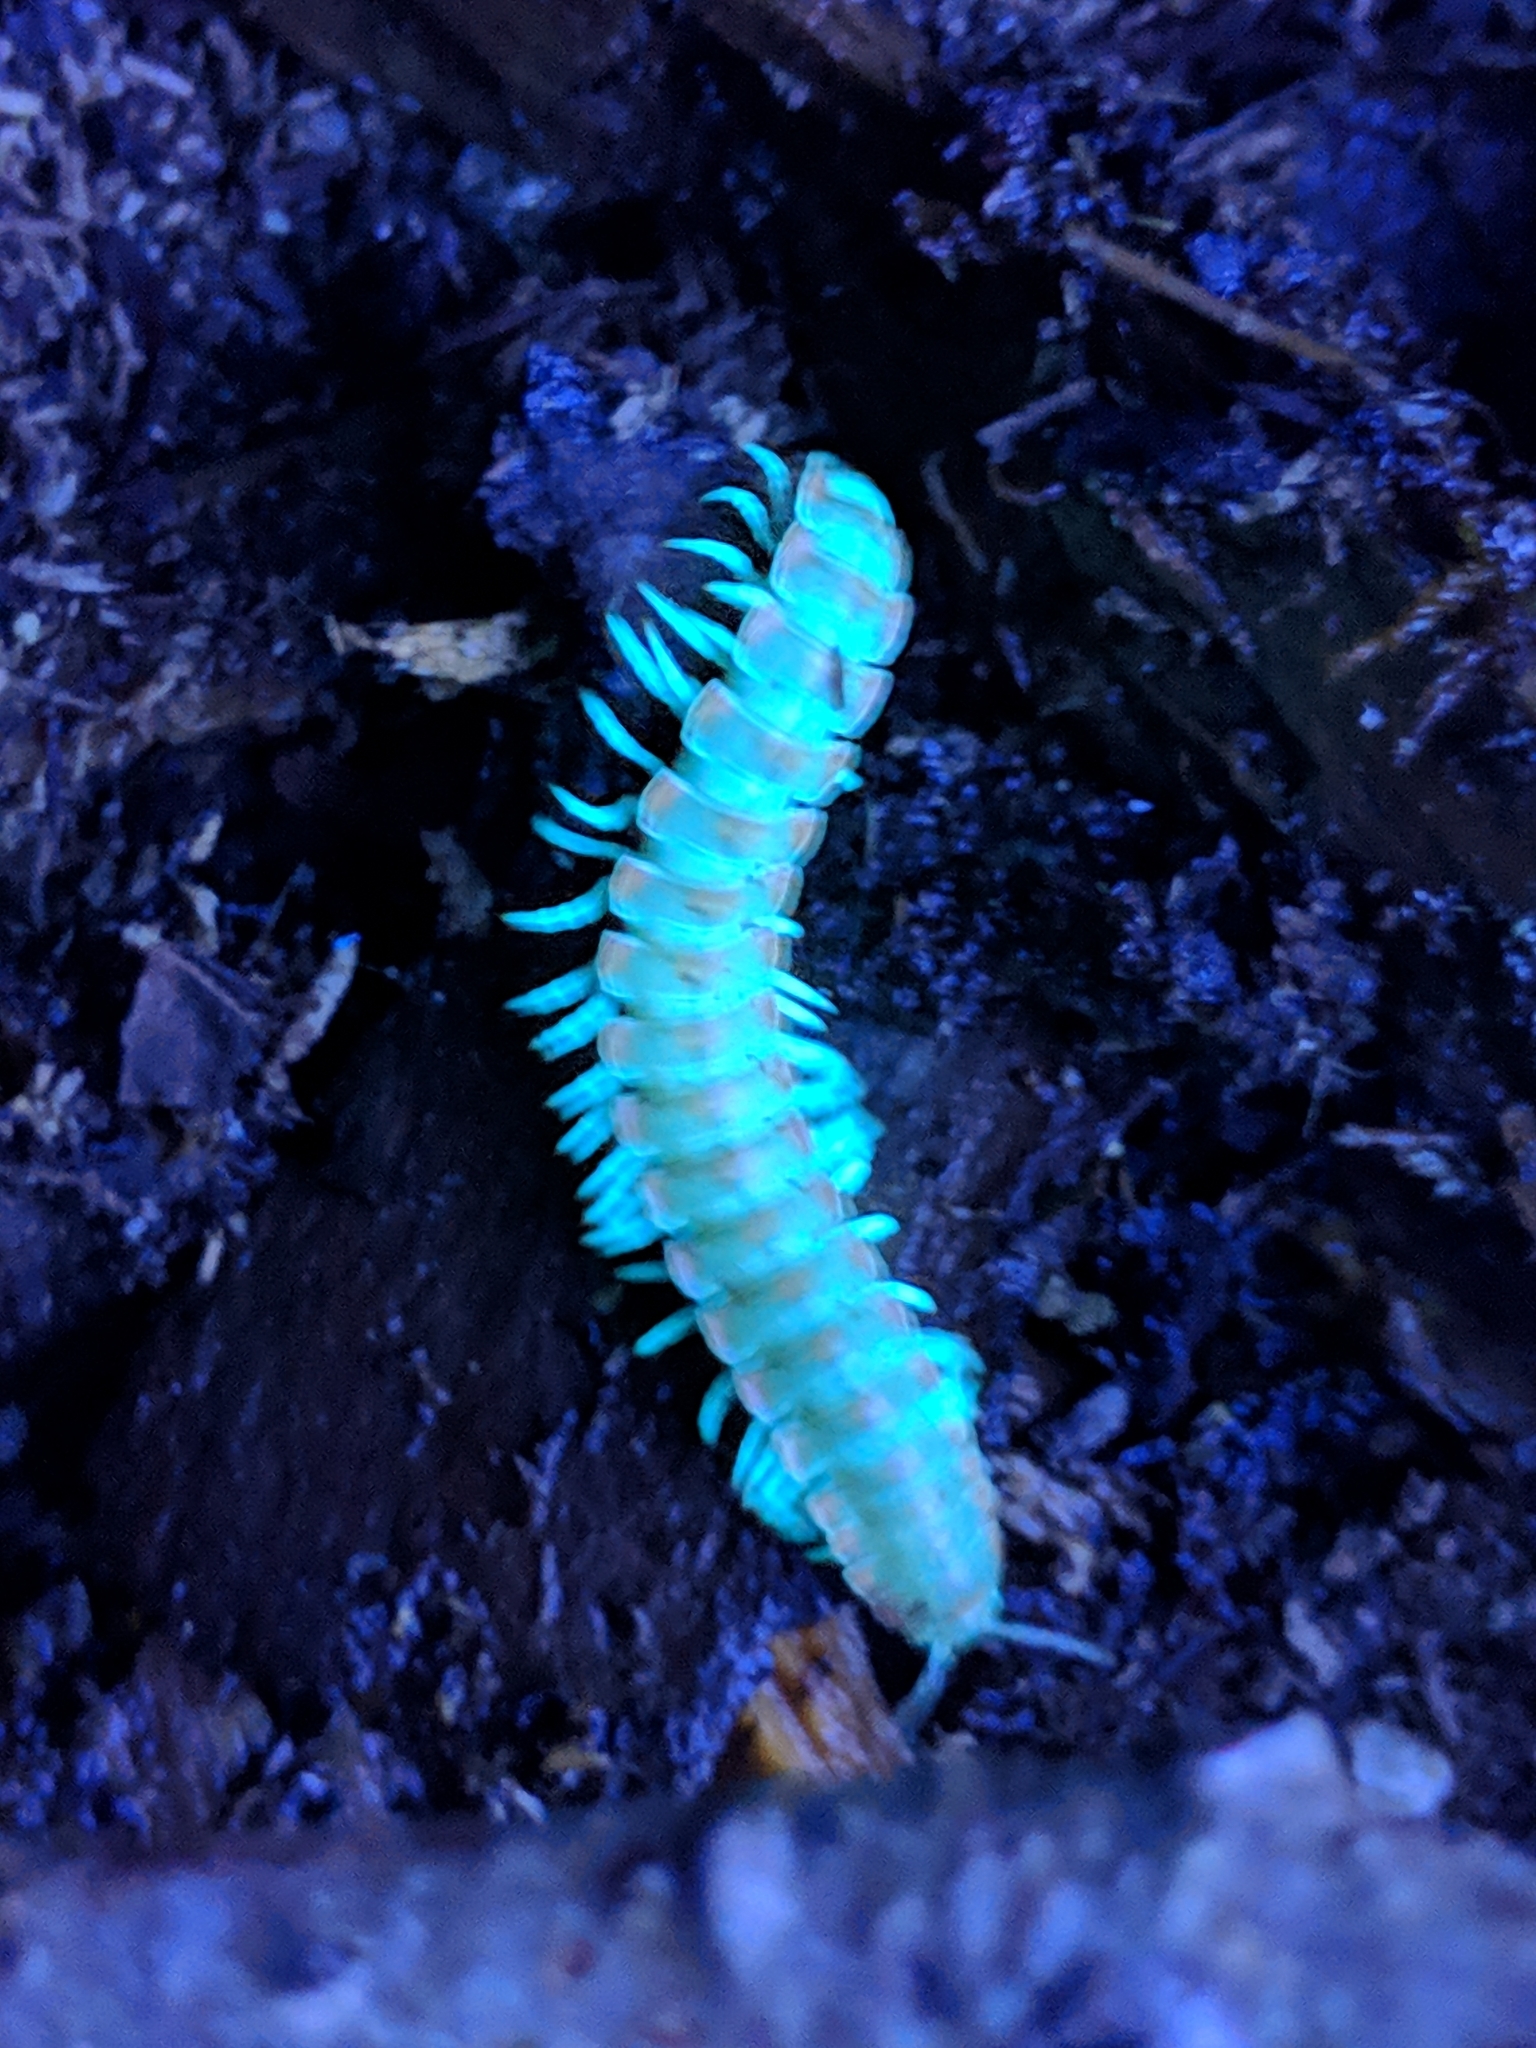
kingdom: Animalia
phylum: Arthropoda
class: Diplopoda
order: Polydesmida
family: Xystodesmidae
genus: Euryurus
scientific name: Euryurus leachii
